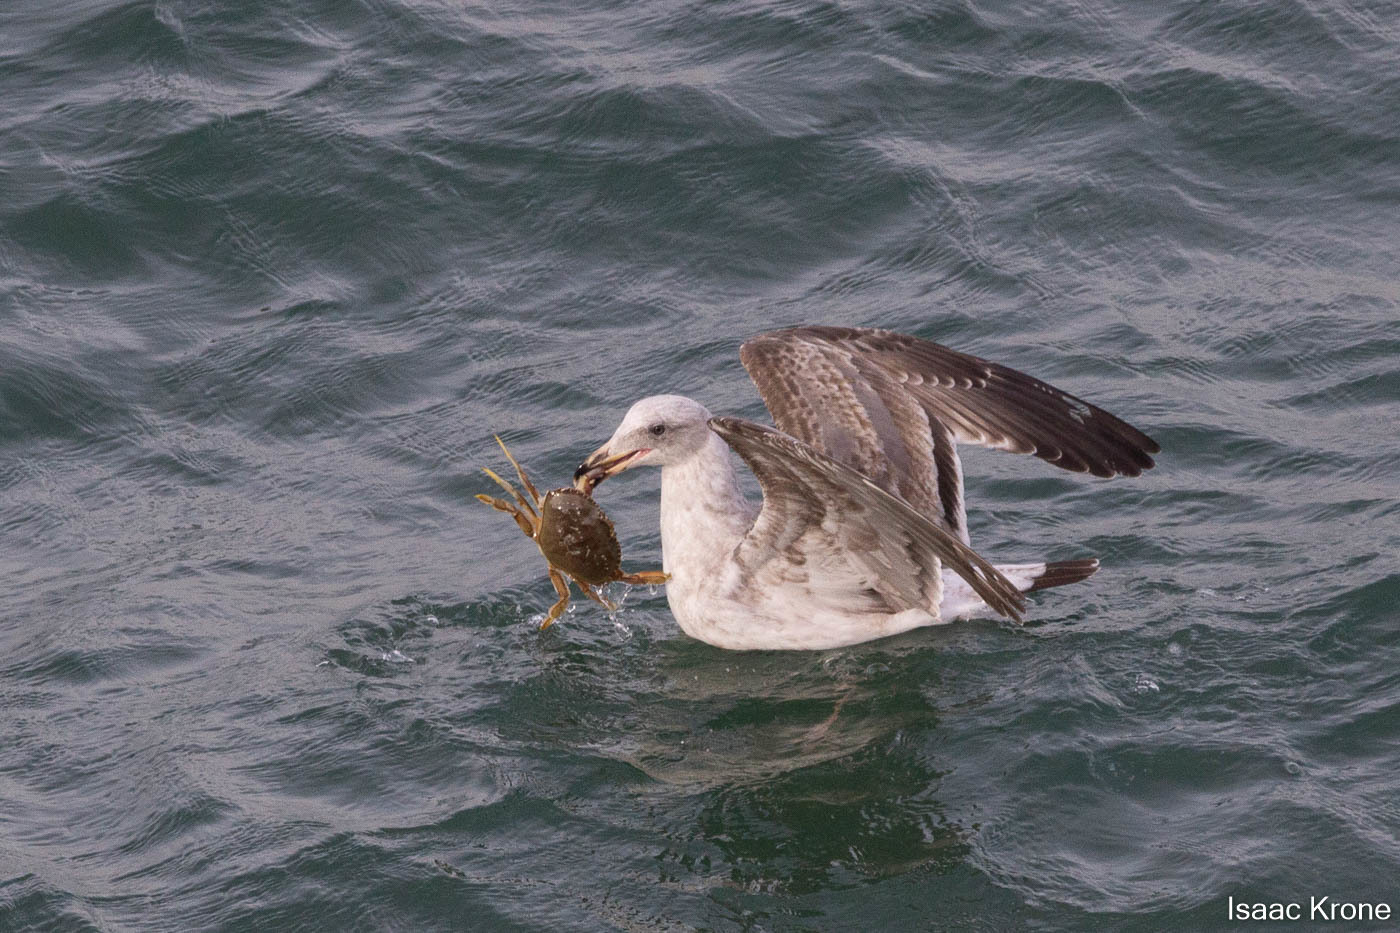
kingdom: Animalia
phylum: Arthropoda
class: Malacostraca
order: Decapoda
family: Cancridae
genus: Metacarcinus
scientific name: Metacarcinus magister
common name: Californian crab
